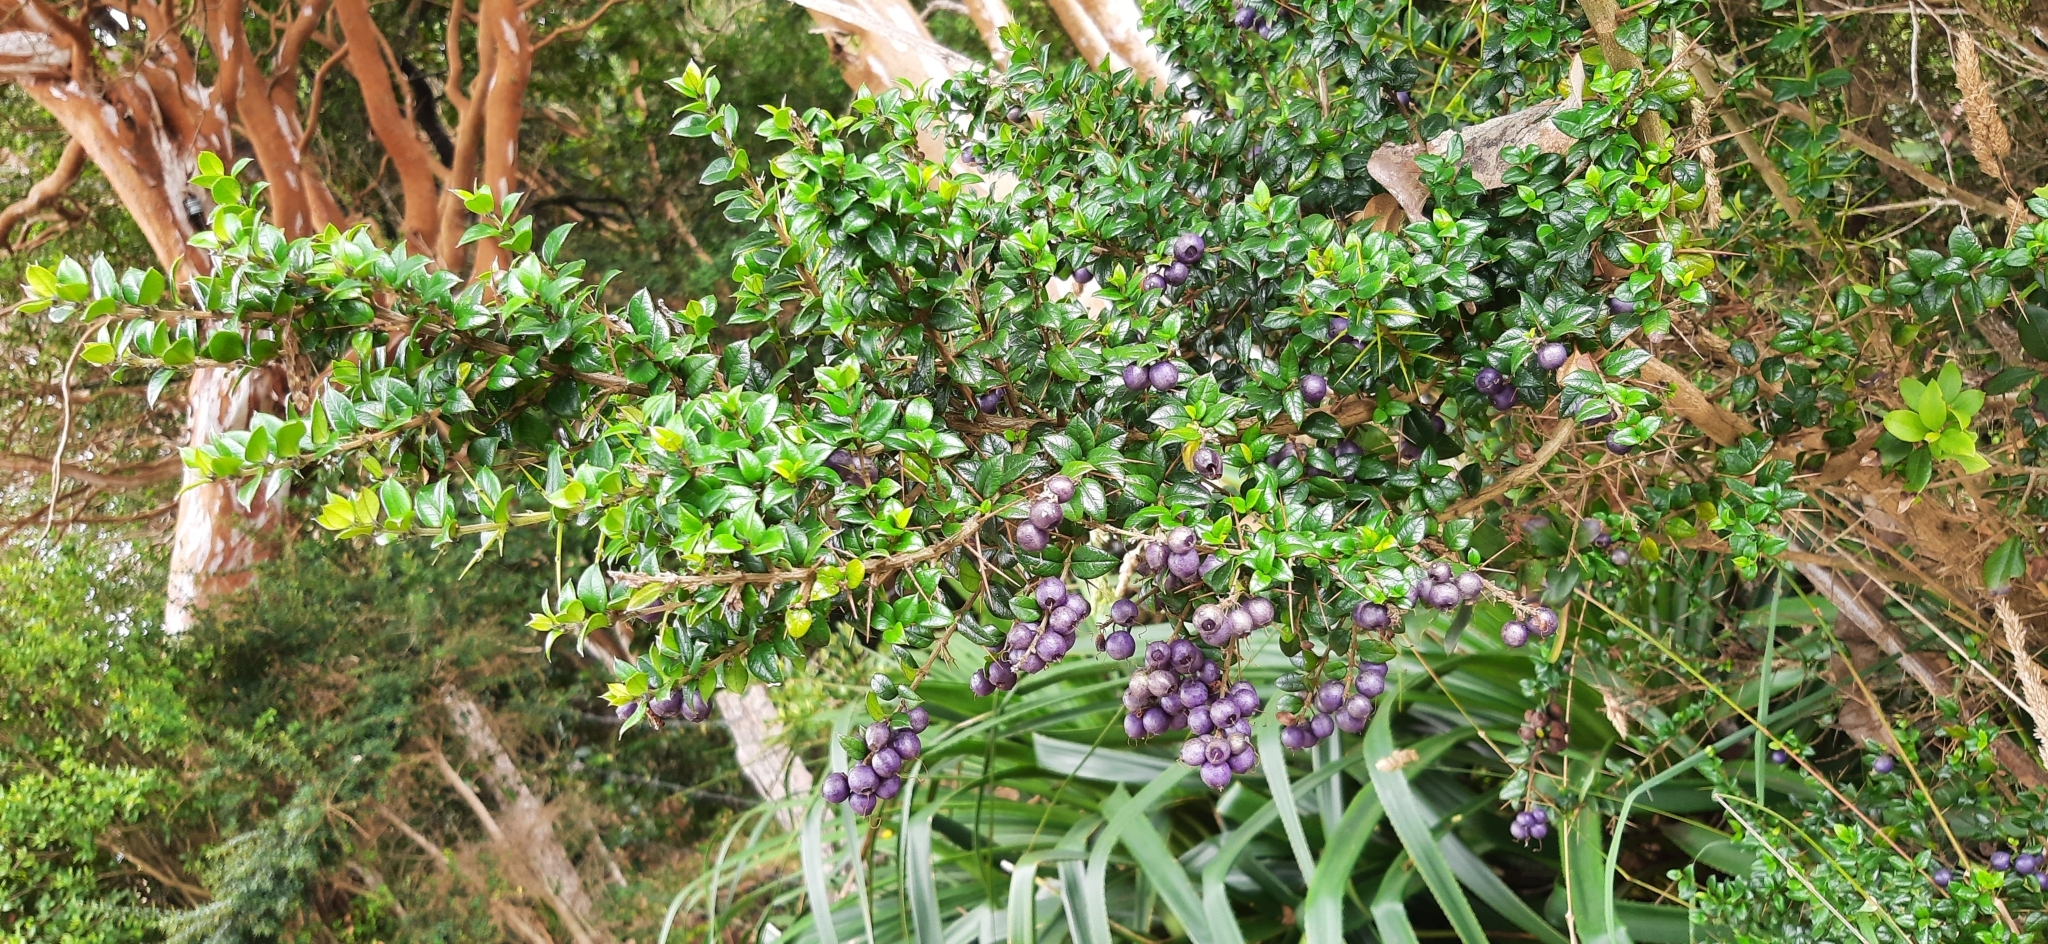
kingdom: Plantae
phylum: Tracheophyta
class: Magnoliopsida
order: Lamiales
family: Verbenaceae
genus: Rhaphithamnus
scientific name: Rhaphithamnus spinosus
